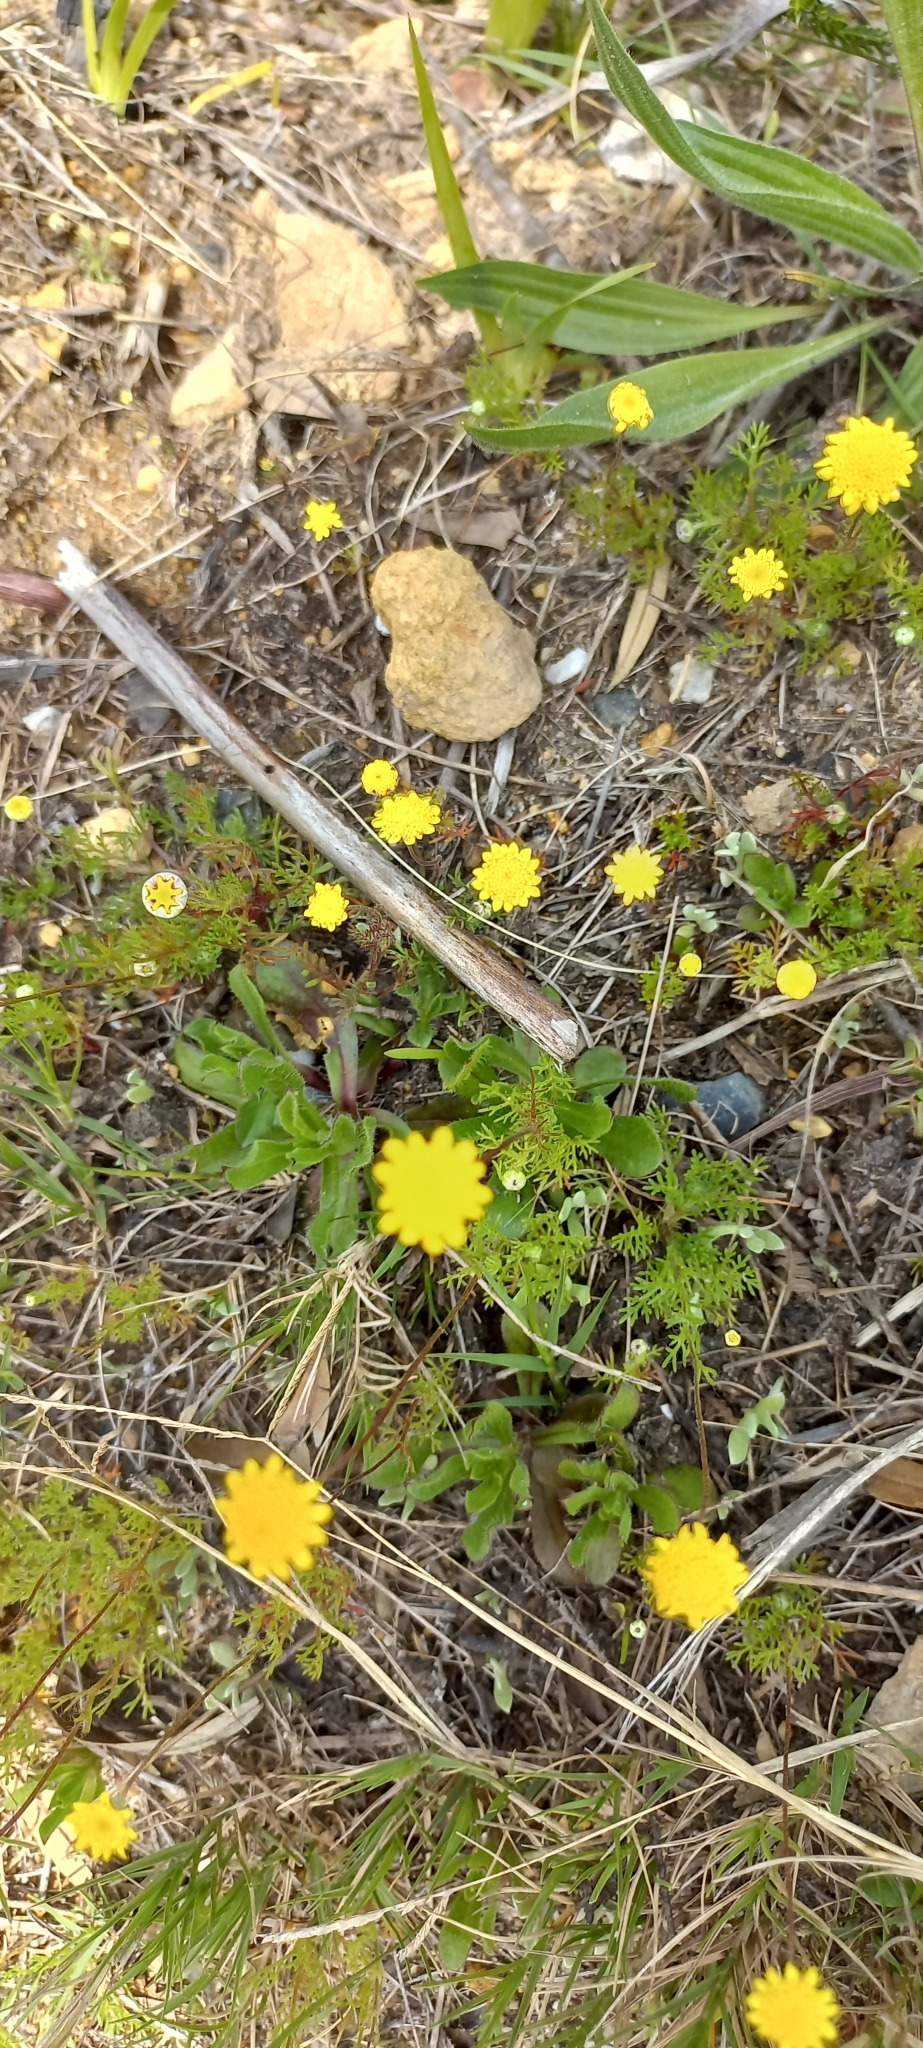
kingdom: Plantae
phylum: Tracheophyta
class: Magnoliopsida
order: Asterales
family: Asteraceae
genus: Cotula
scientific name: Cotula pruinosa
